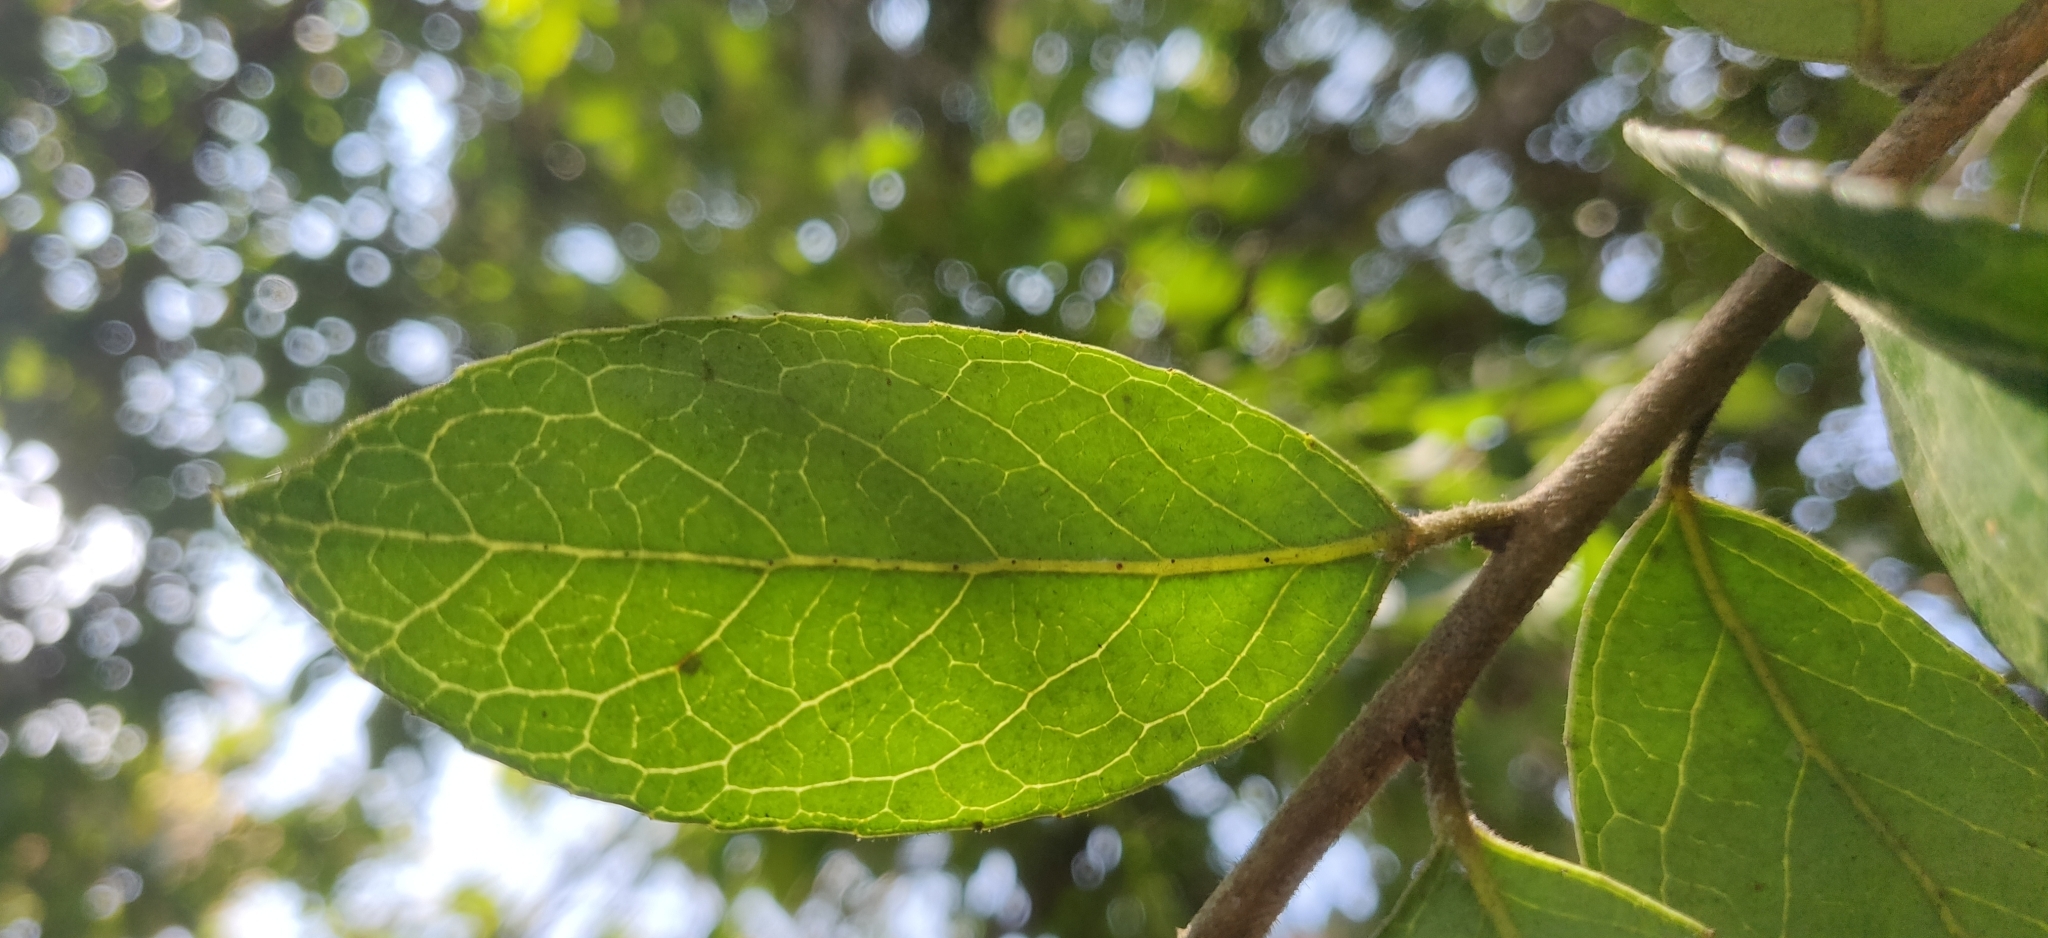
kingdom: Plantae
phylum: Tracheophyta
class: Magnoliopsida
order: Ericales
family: Ericaceae
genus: Vaccinium
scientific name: Vaccinium symplocifolium
